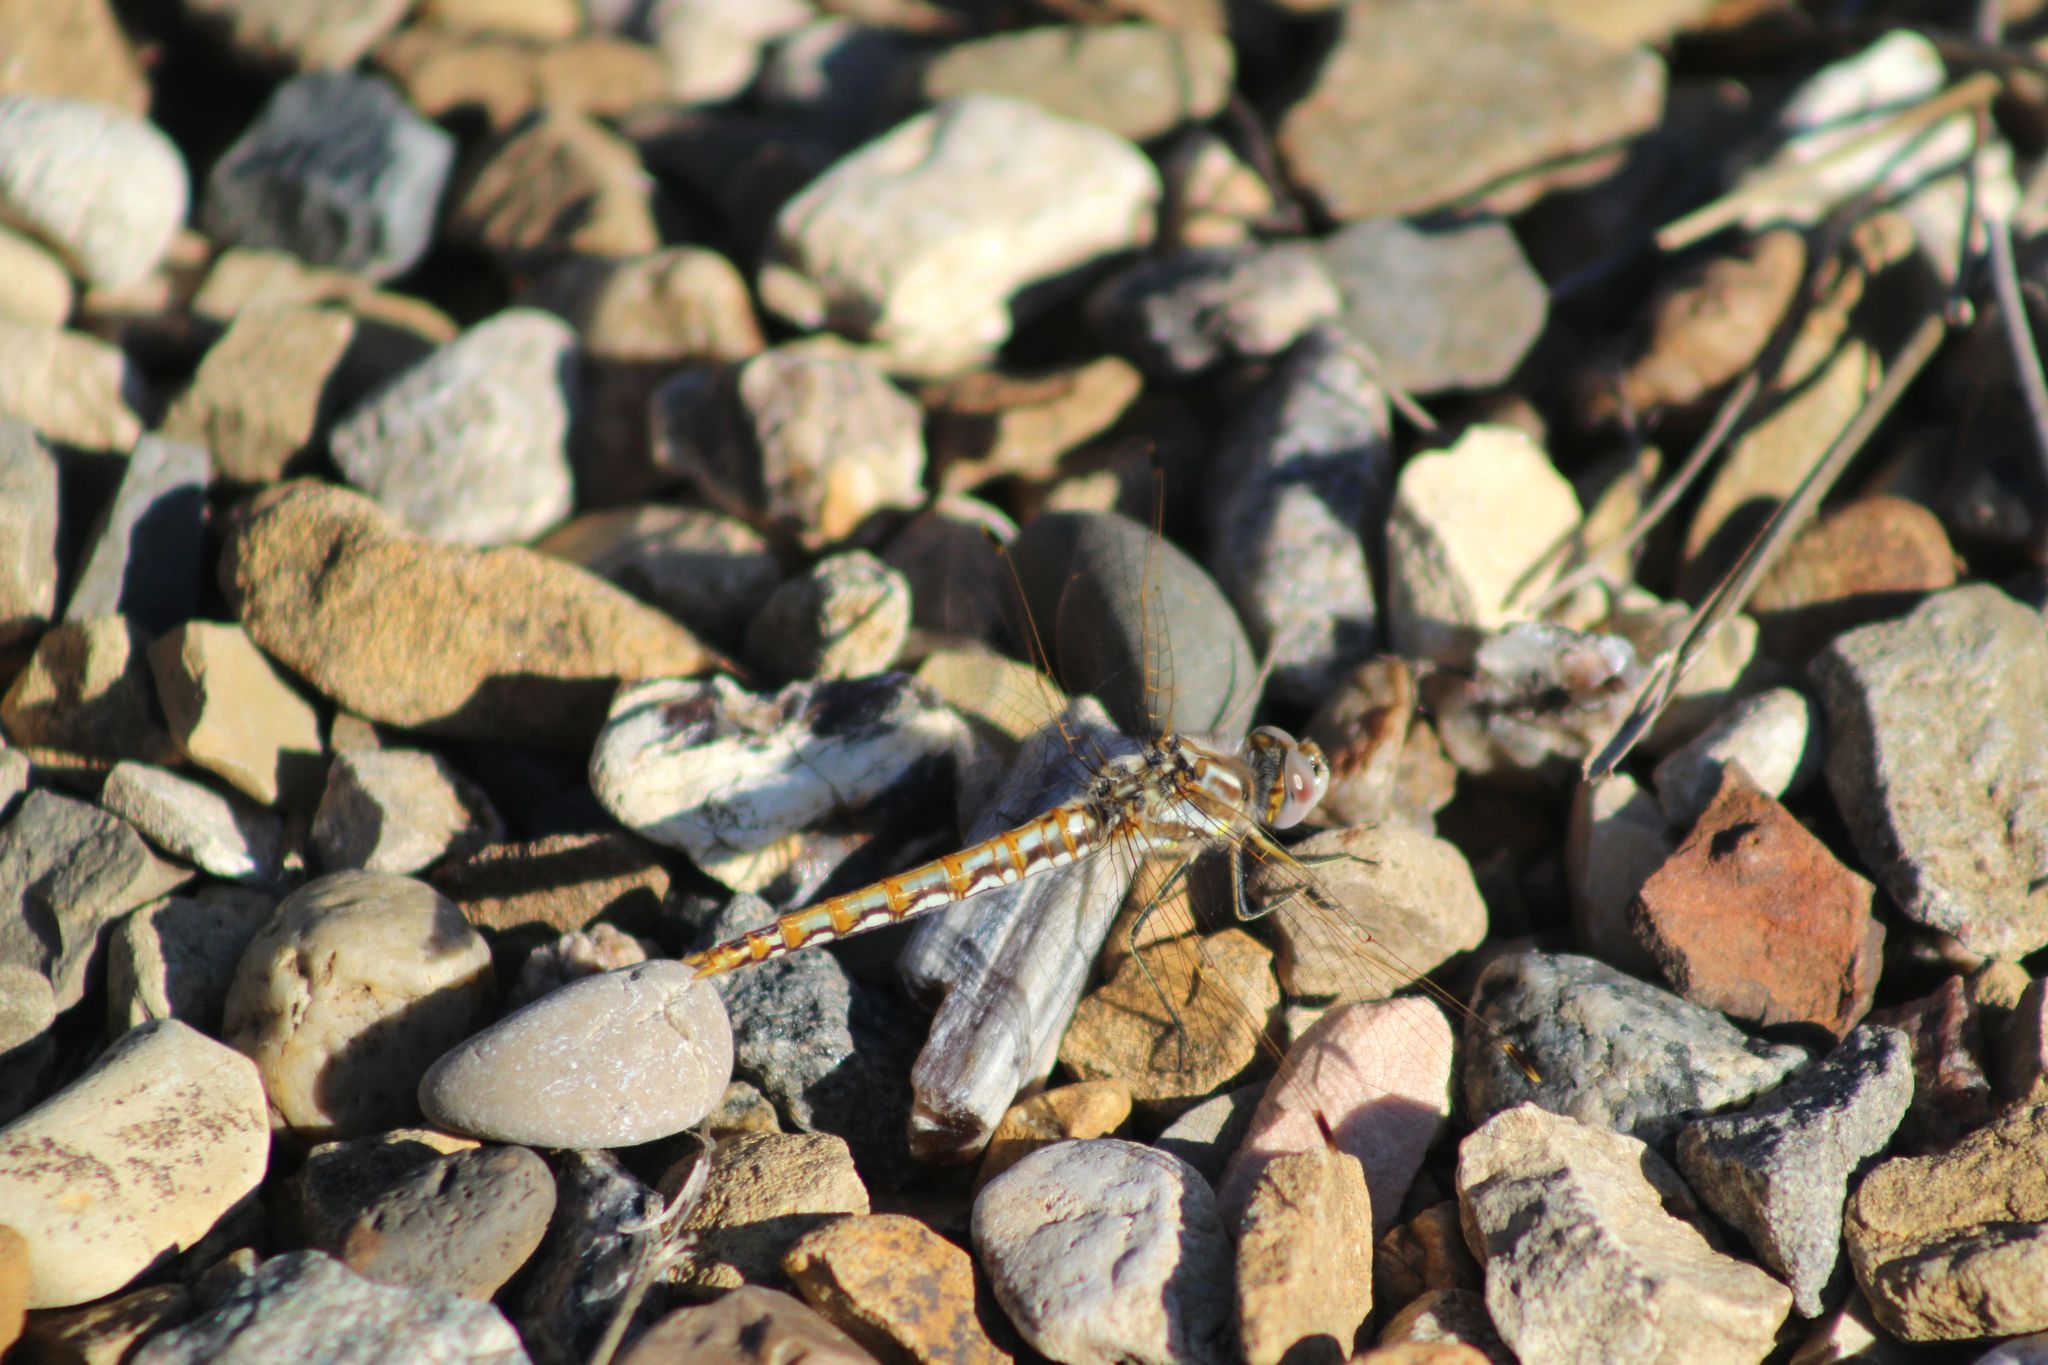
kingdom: Animalia
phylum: Arthropoda
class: Insecta
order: Odonata
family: Libellulidae
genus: Sympetrum
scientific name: Sympetrum corruptum
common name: Variegated meadowhawk
